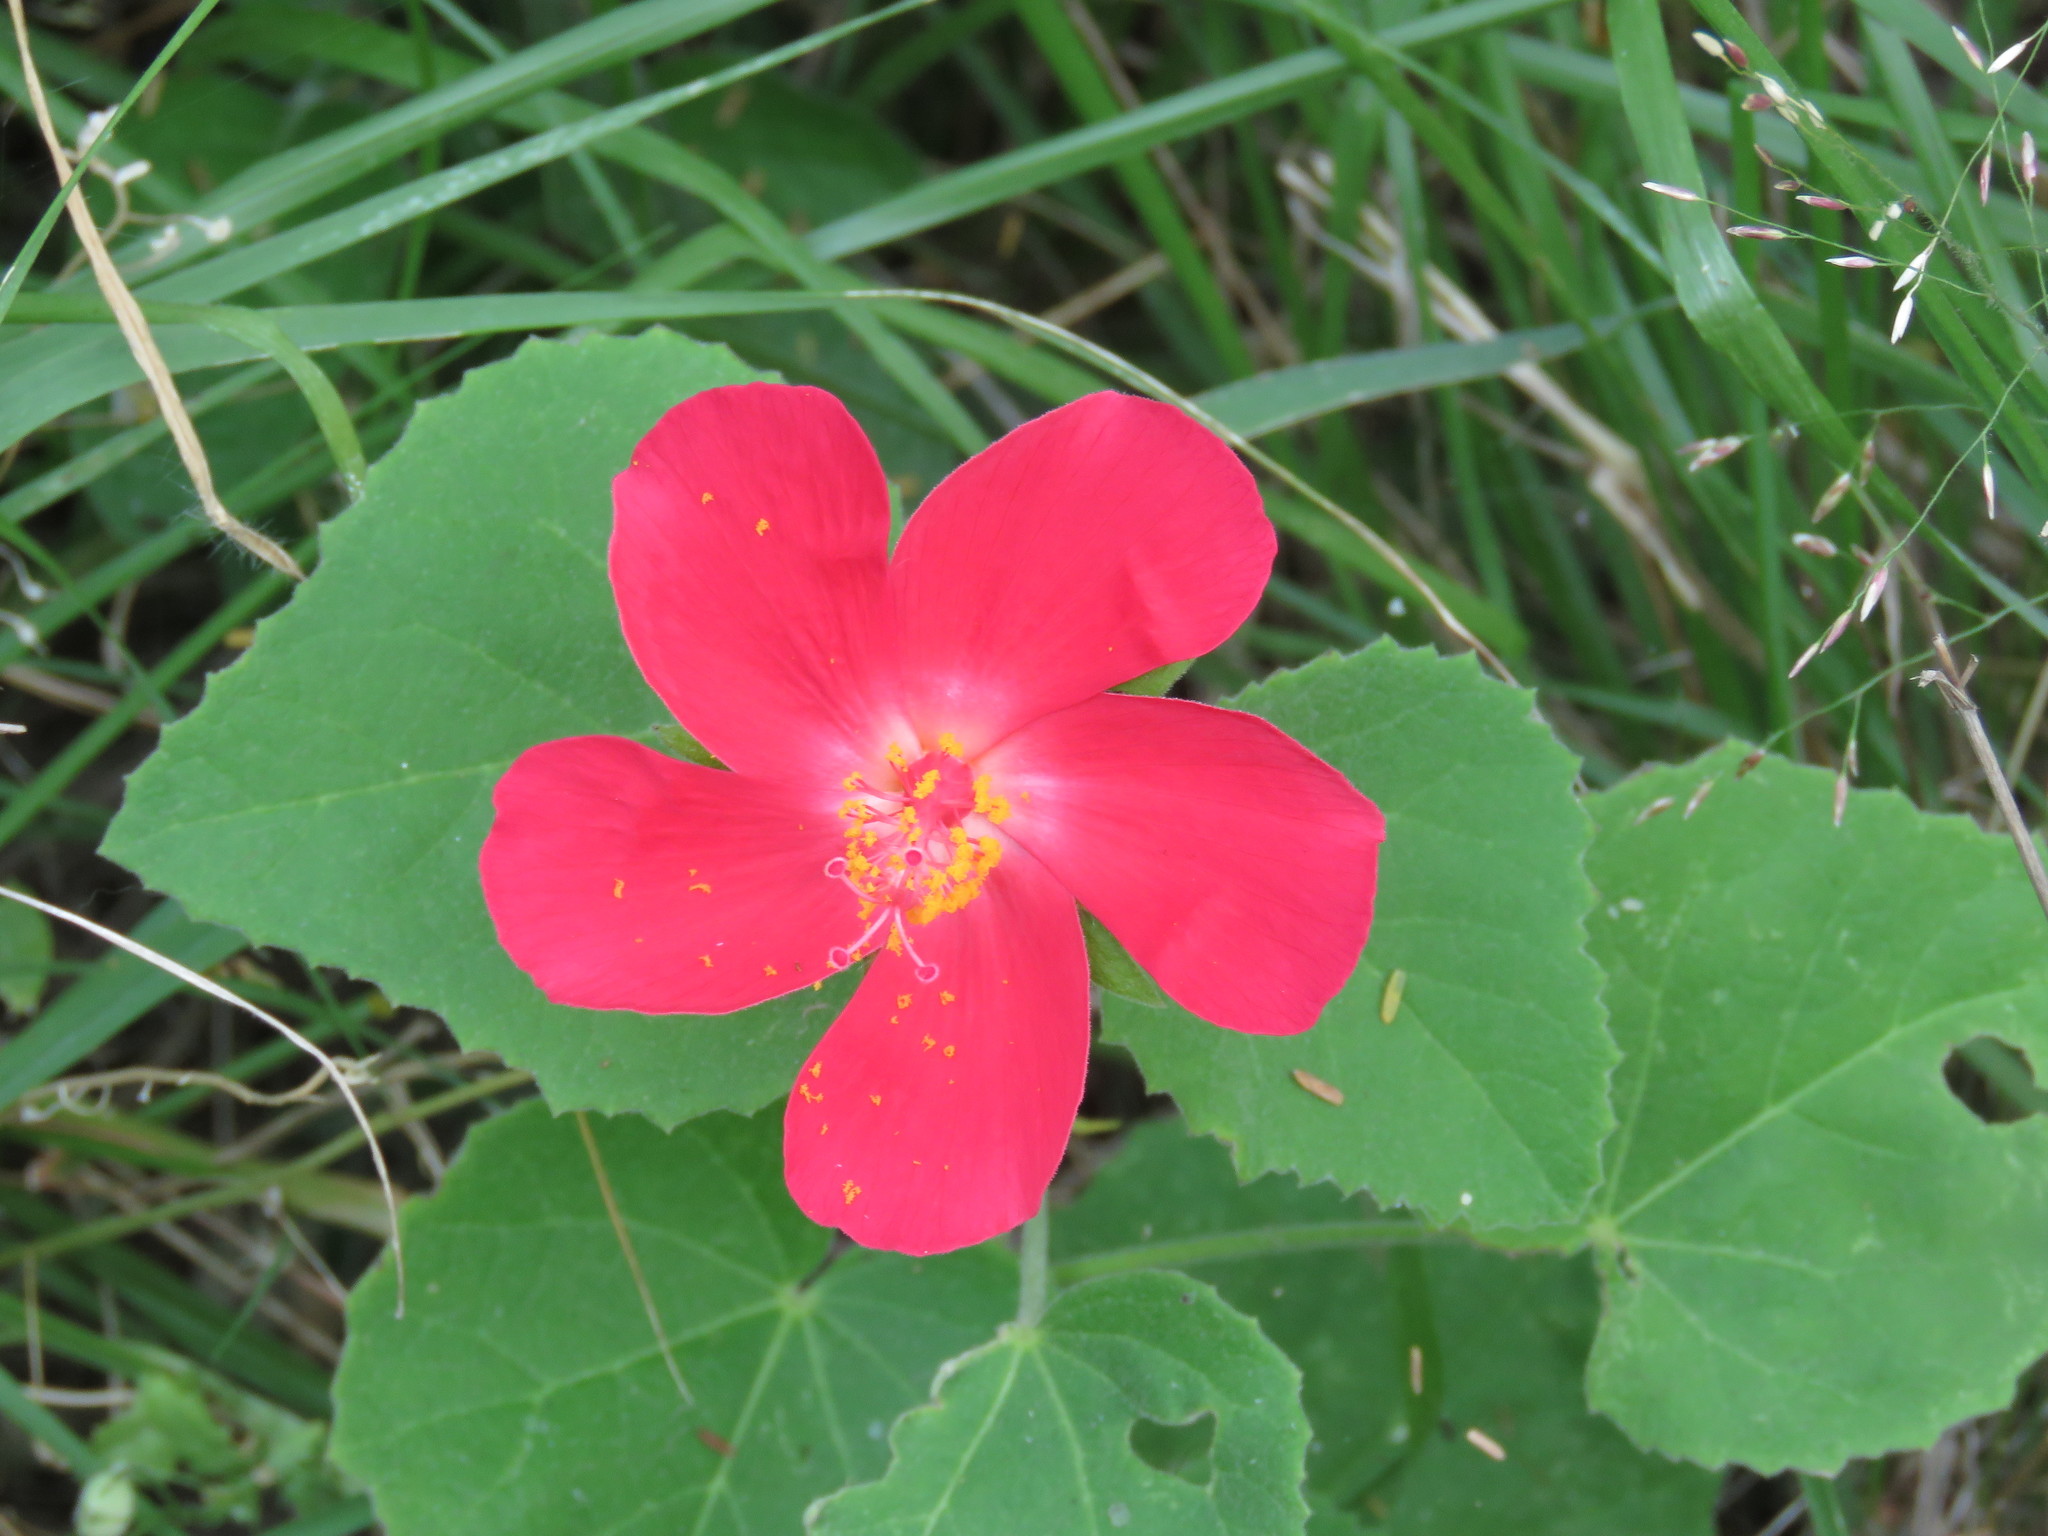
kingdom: Plantae
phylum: Tracheophyta
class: Magnoliopsida
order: Malvales
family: Malvaceae
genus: Hibiscus
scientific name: Hibiscus martianus
